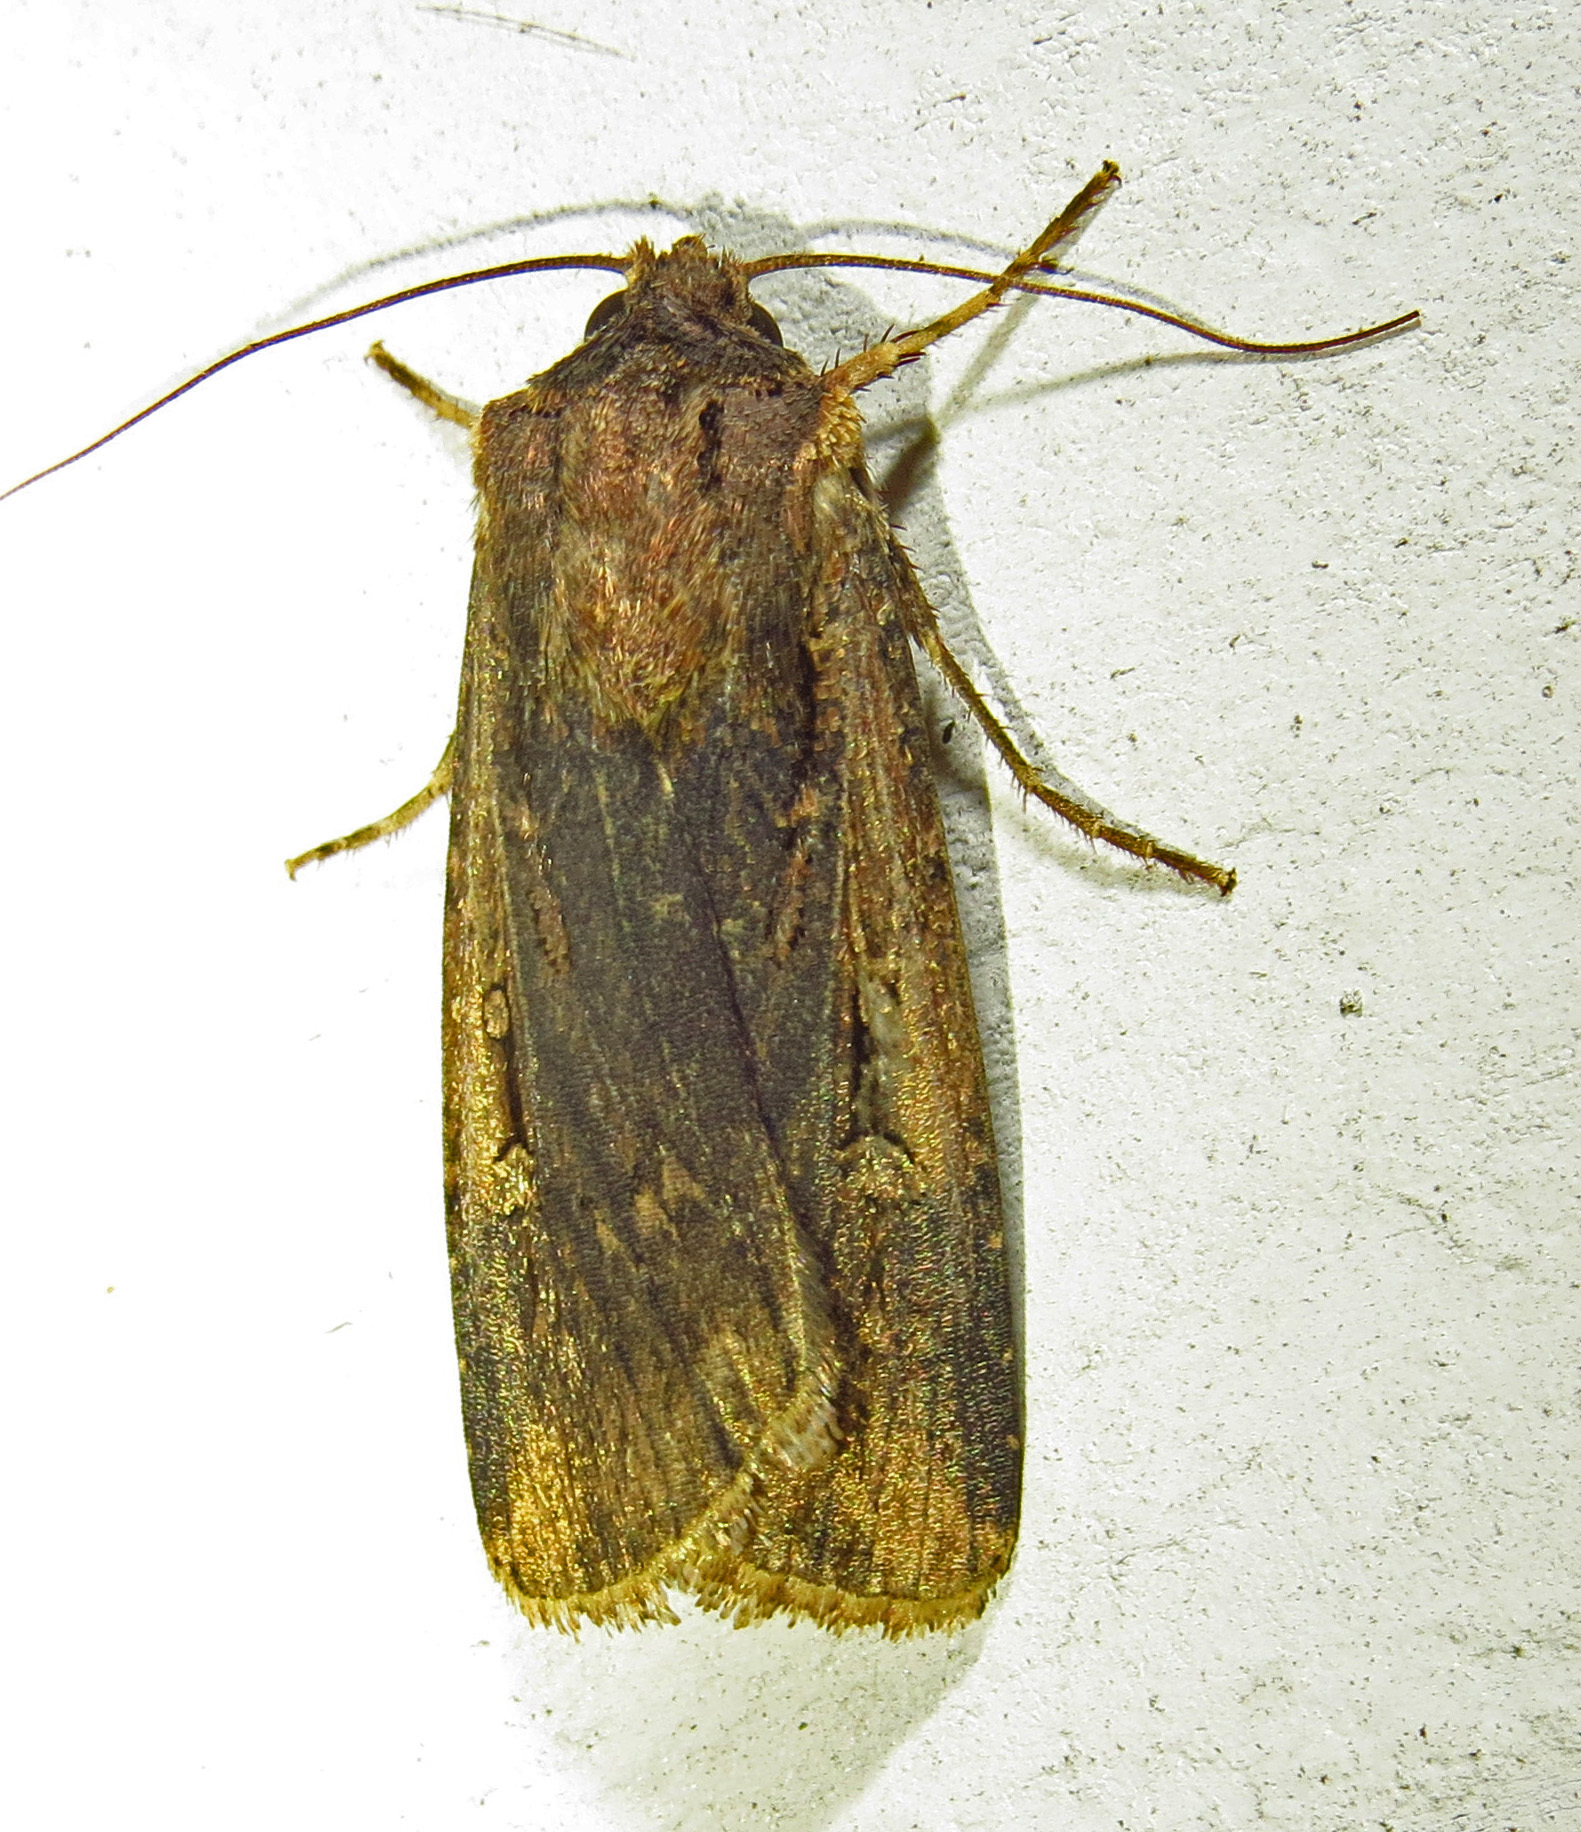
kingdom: Animalia
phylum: Arthropoda
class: Insecta
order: Lepidoptera
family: Noctuidae
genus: Feltia
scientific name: Feltia subterranea
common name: Granulate cutworm
